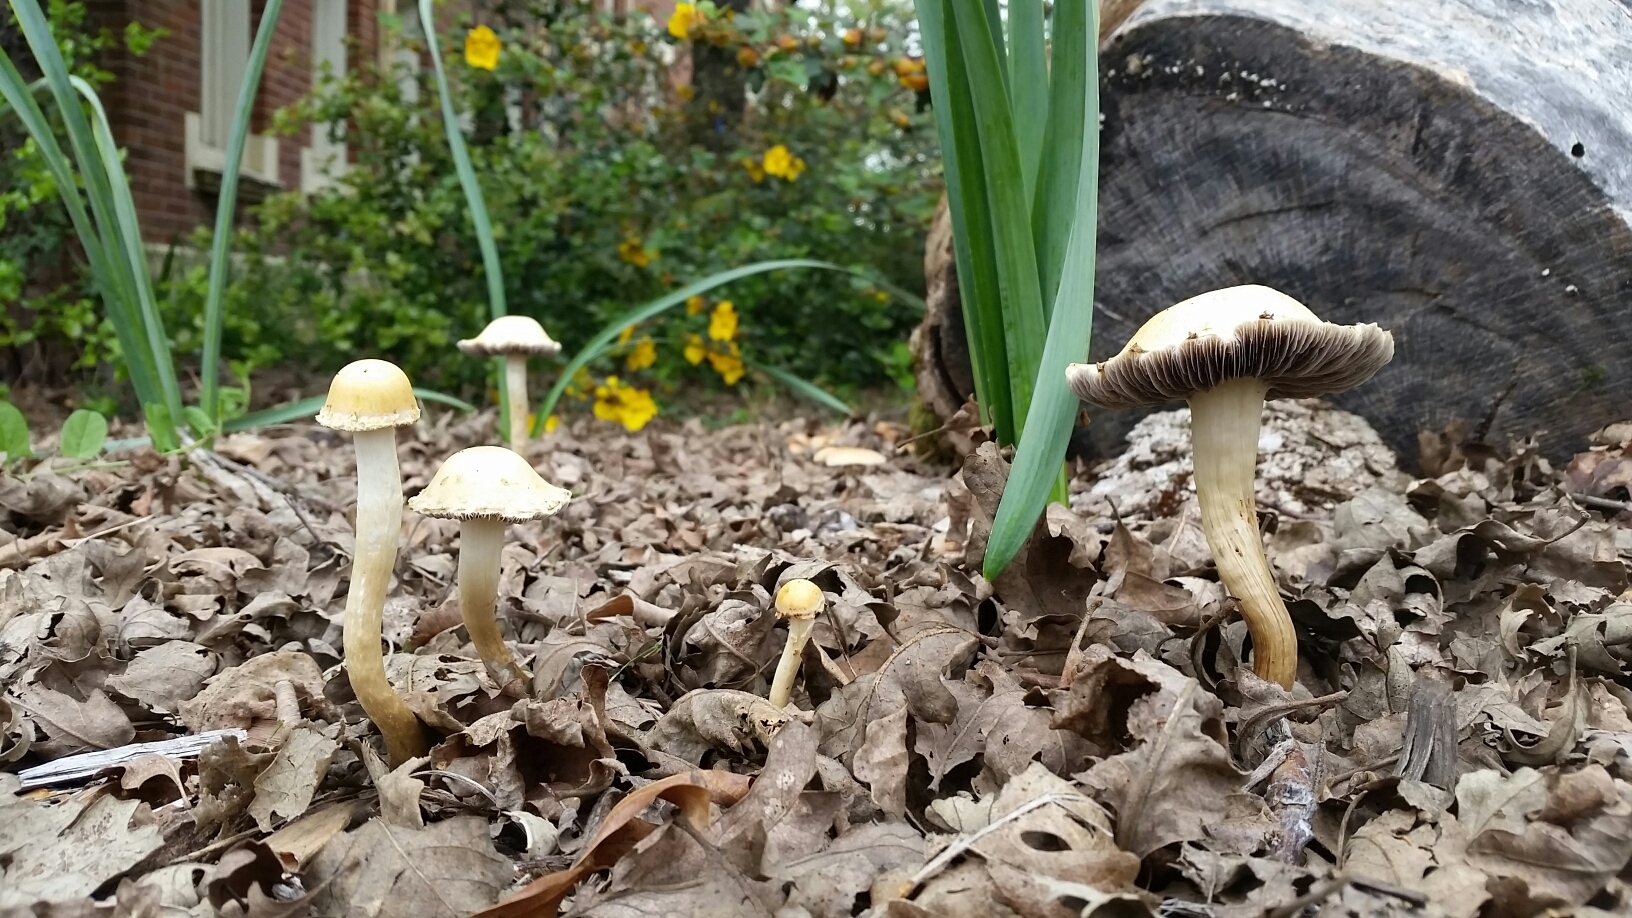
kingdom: Fungi
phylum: Basidiomycota
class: Agaricomycetes
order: Agaricales
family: Strophariaceae
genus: Leratiomyces
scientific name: Leratiomyces percevalii
